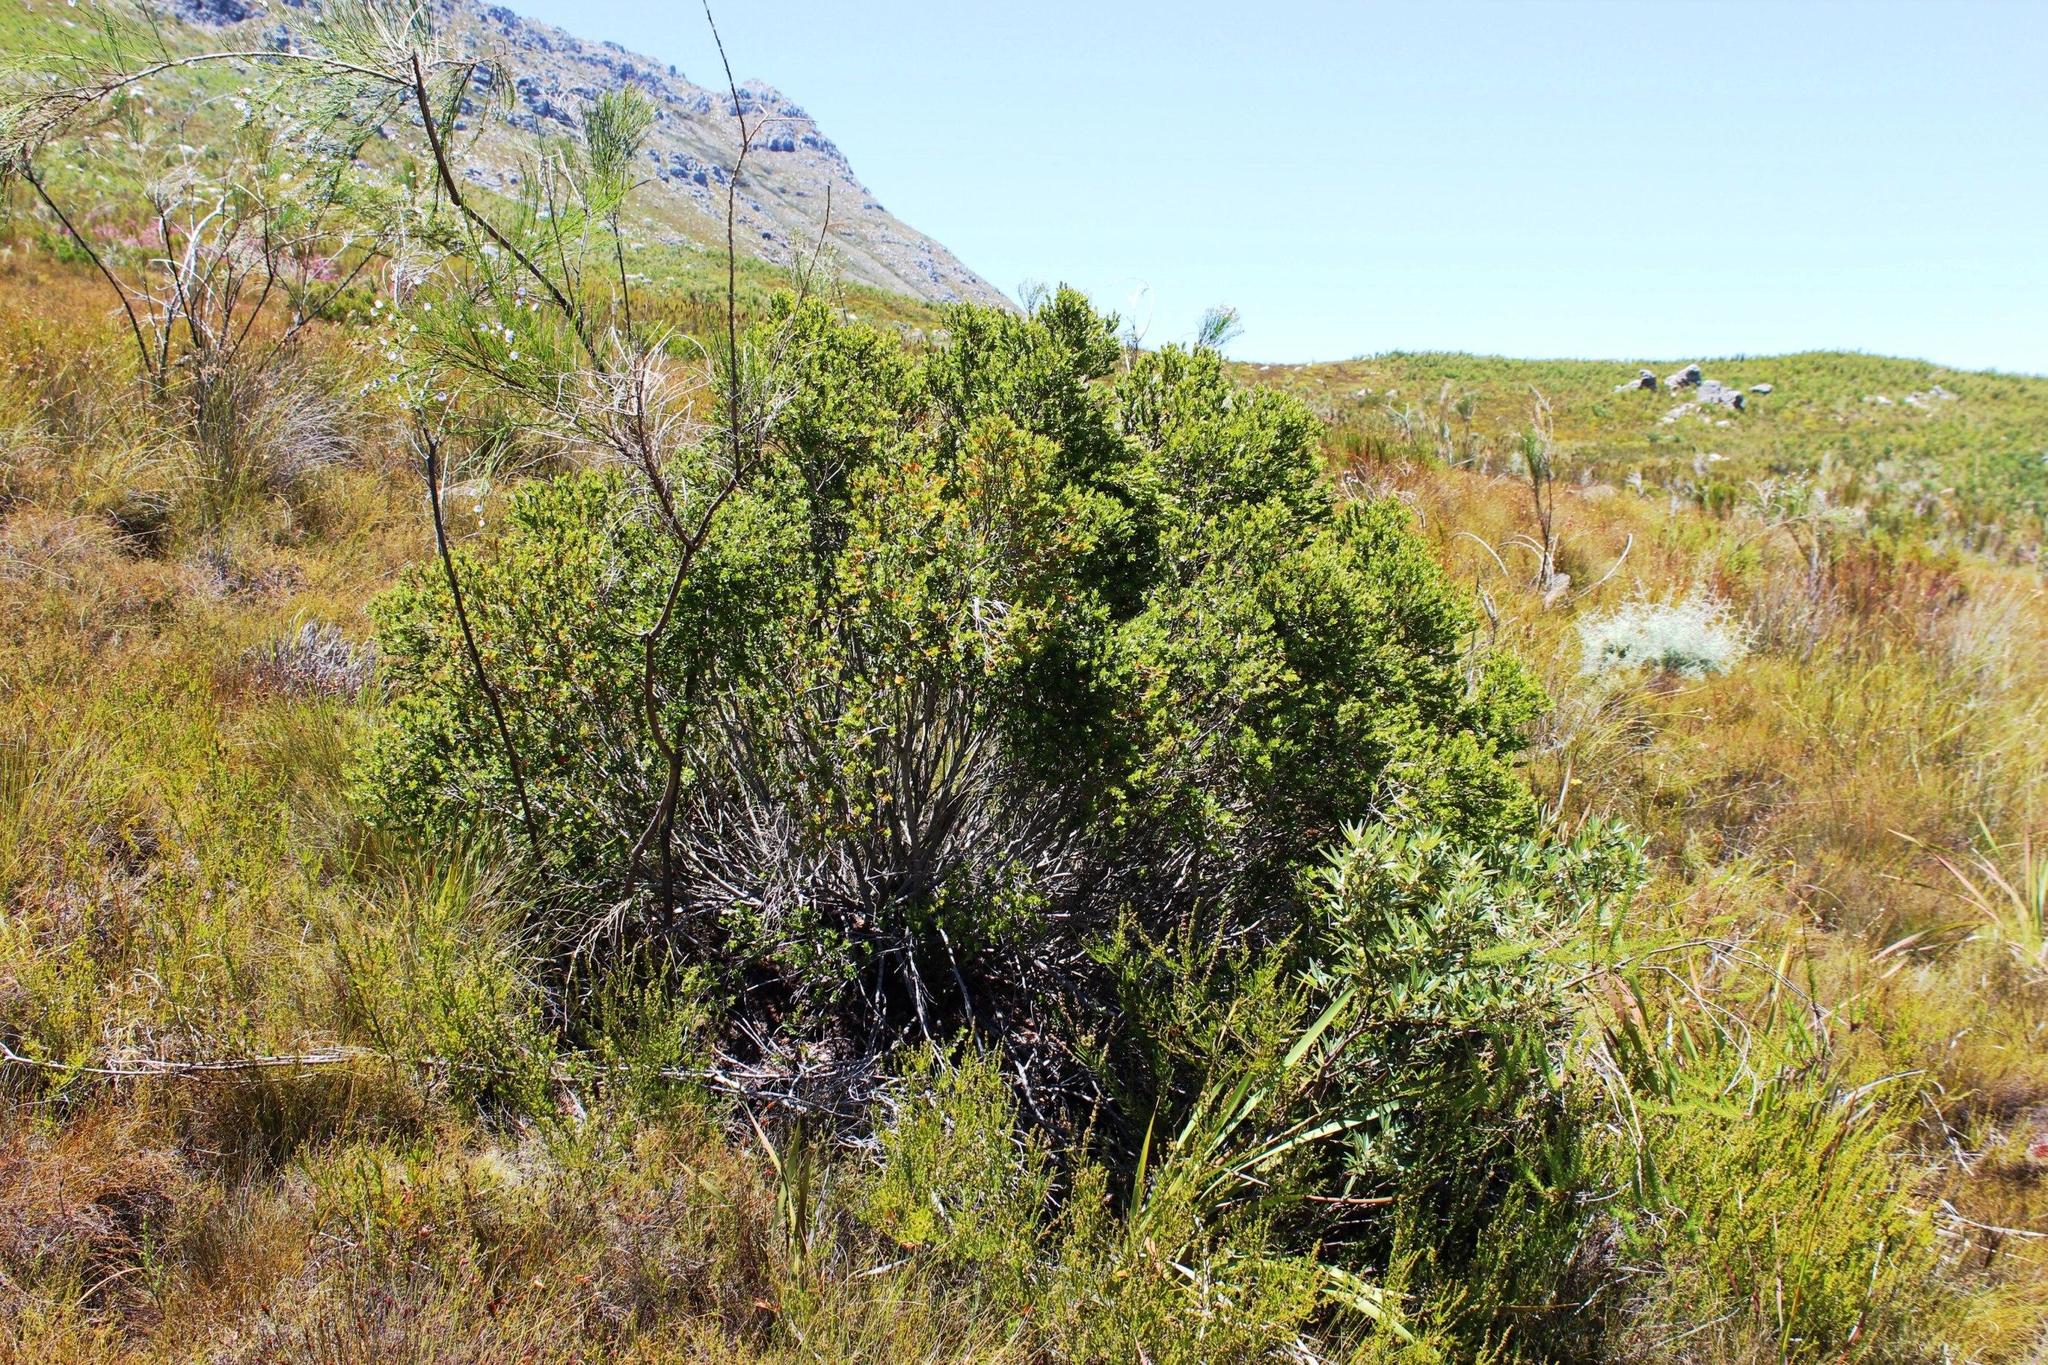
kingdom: Plantae
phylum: Tracheophyta
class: Magnoliopsida
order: Sapindales
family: Anacardiaceae
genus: Searsia
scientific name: Searsia angustifolia
